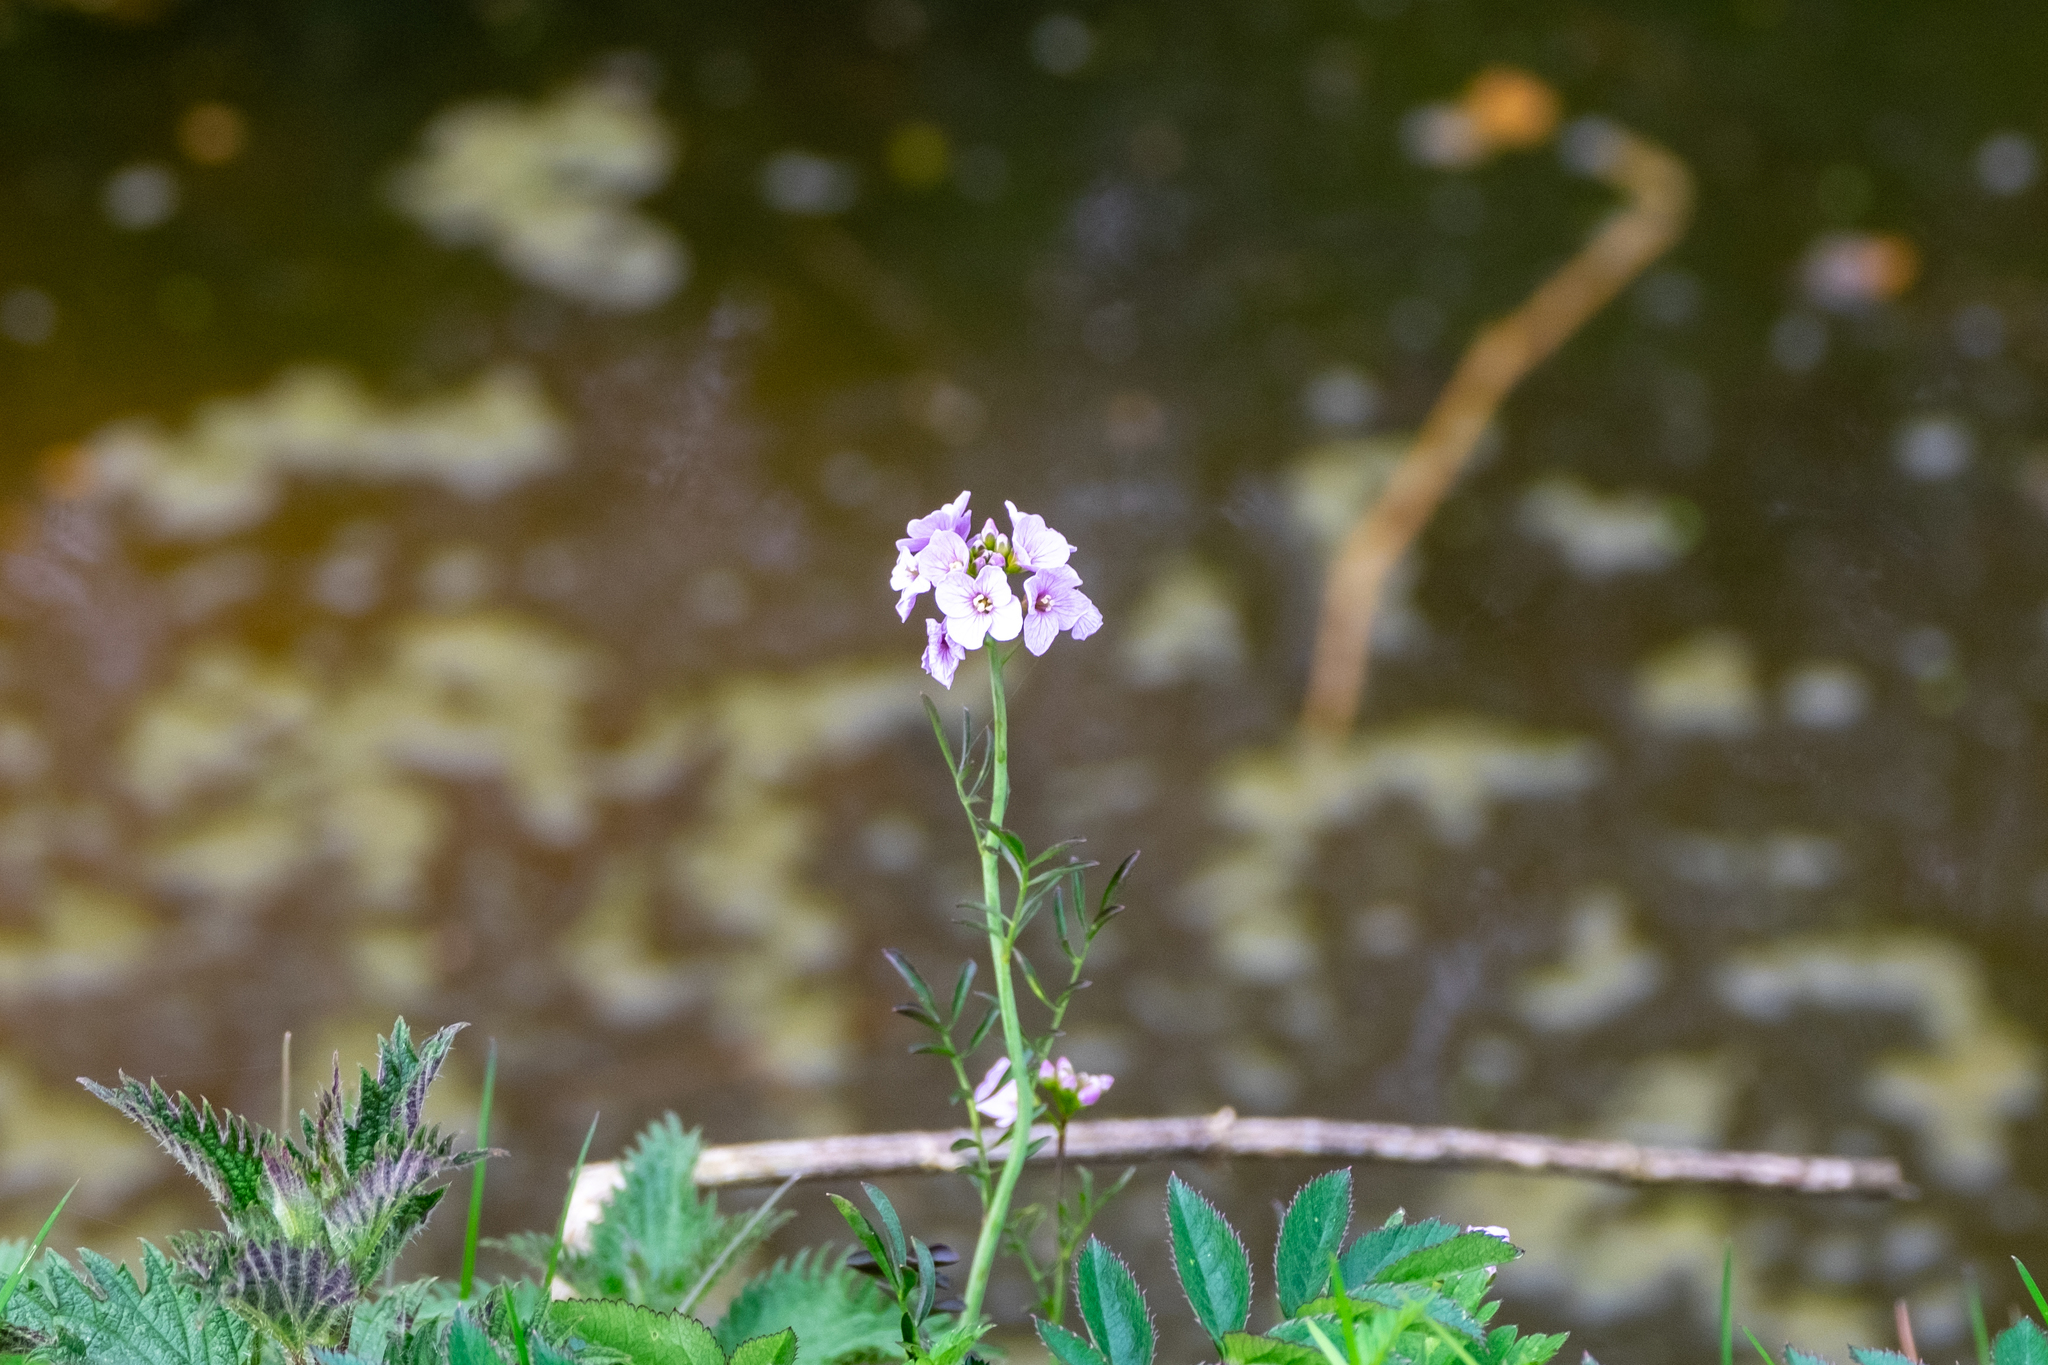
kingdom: Plantae
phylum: Tracheophyta
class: Magnoliopsida
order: Brassicales
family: Brassicaceae
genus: Cardamine
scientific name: Cardamine pratensis
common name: Cuckoo flower
